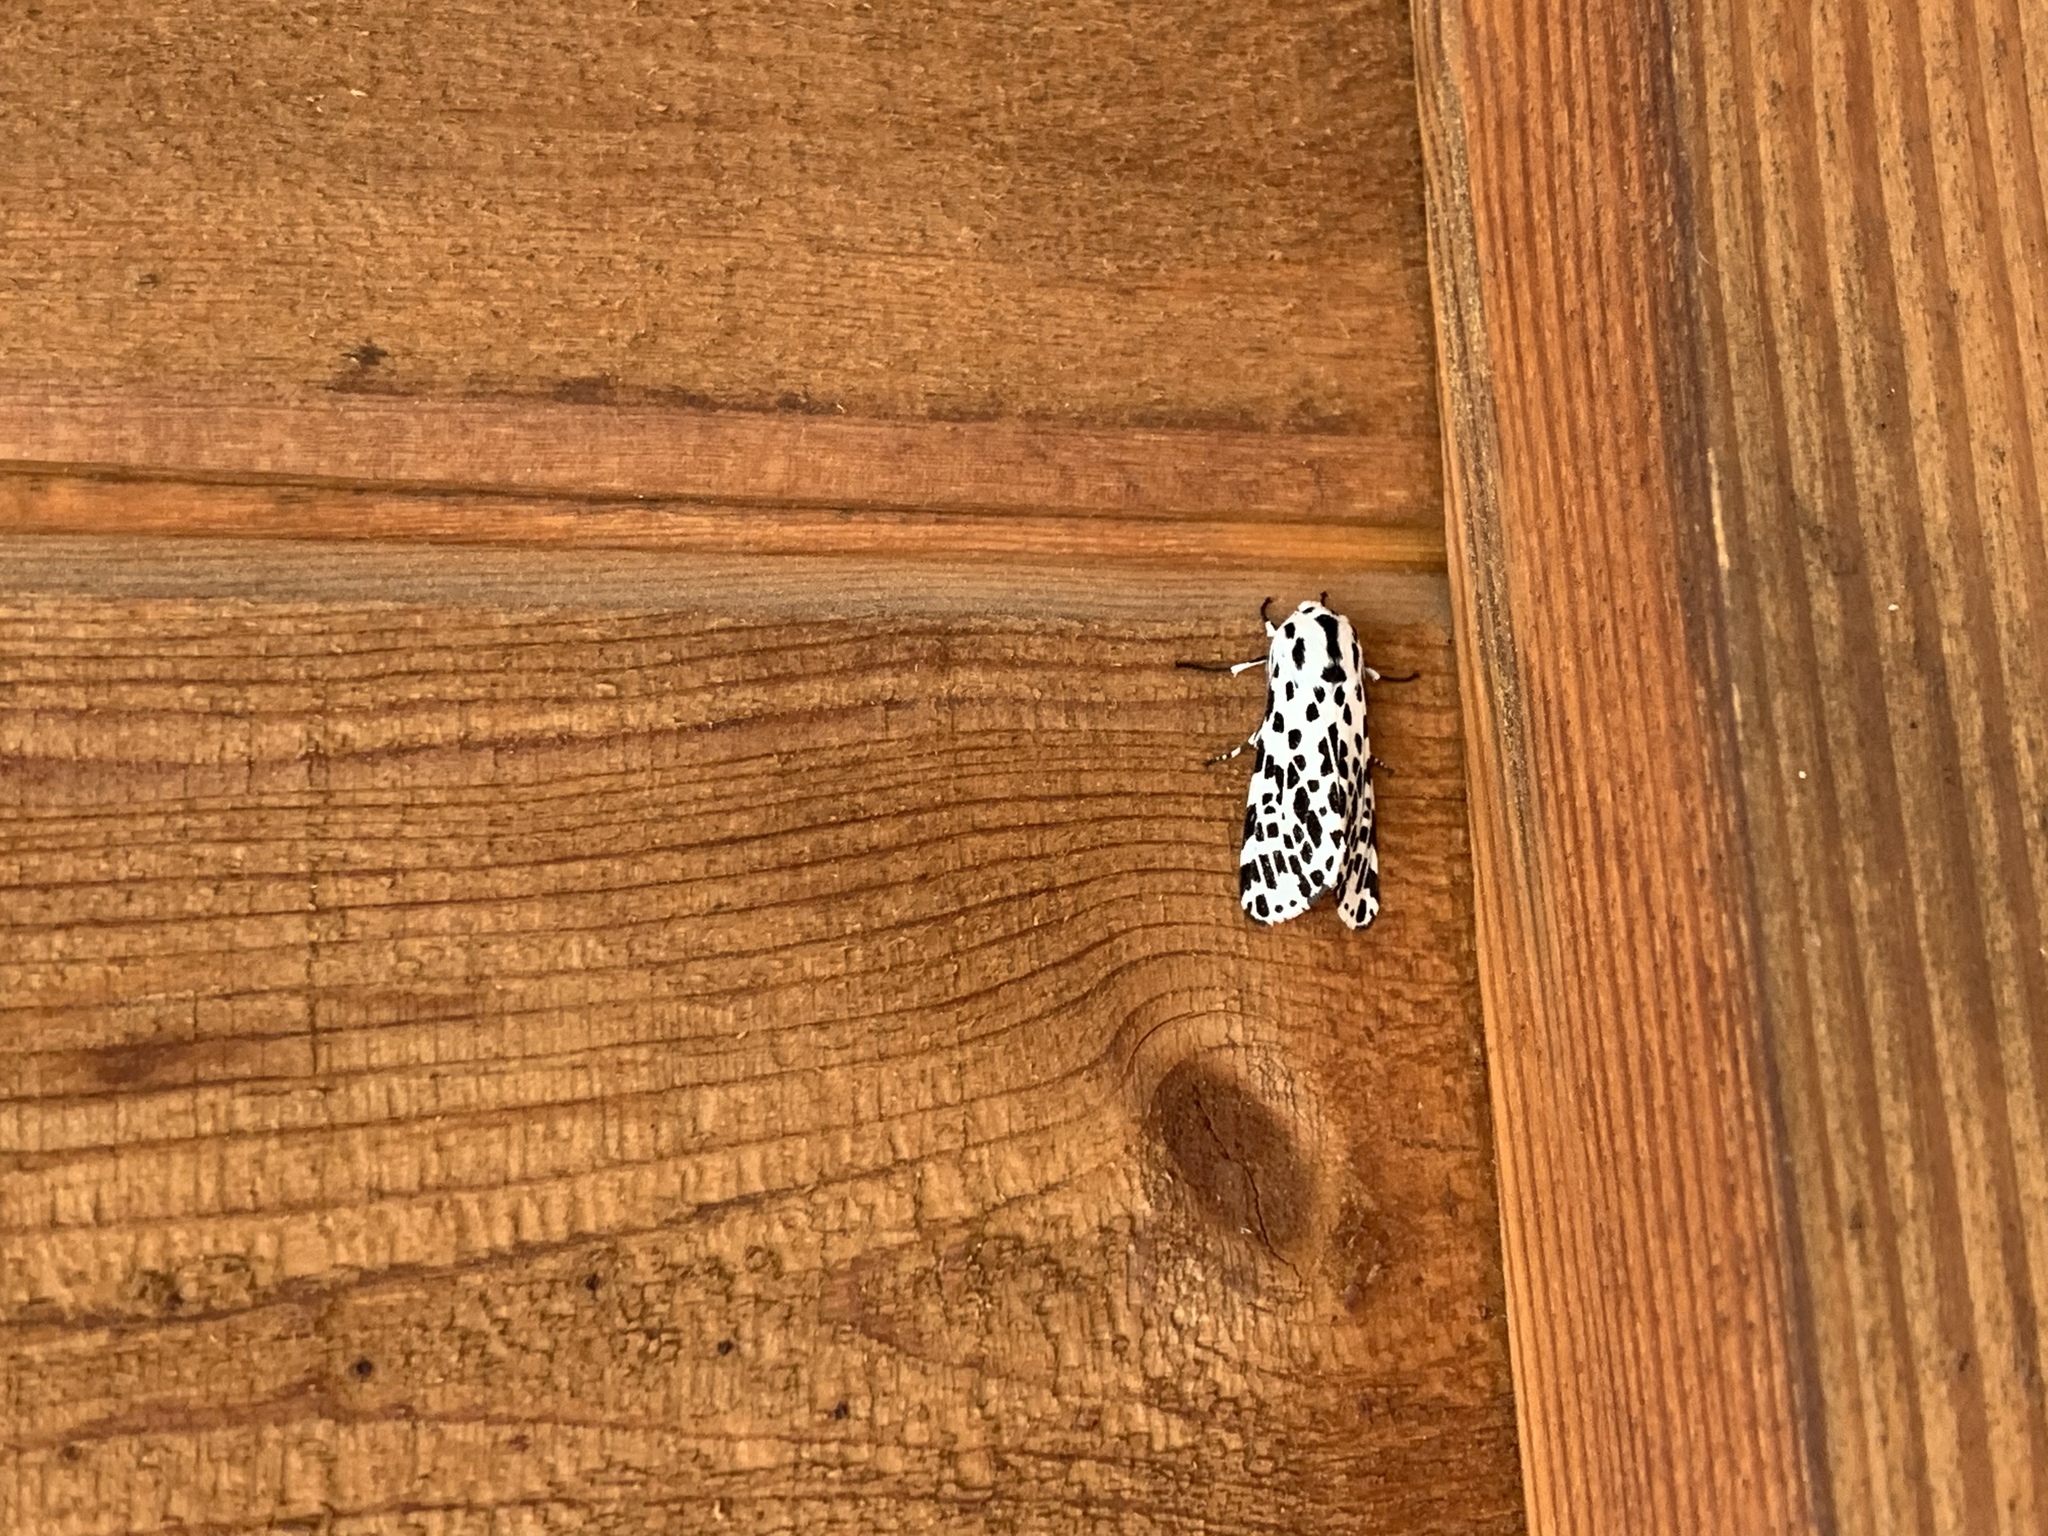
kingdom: Animalia
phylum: Arthropoda
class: Insecta
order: Lepidoptera
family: Erebidae
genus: Hypercompe
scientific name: Hypercompe permaculata
